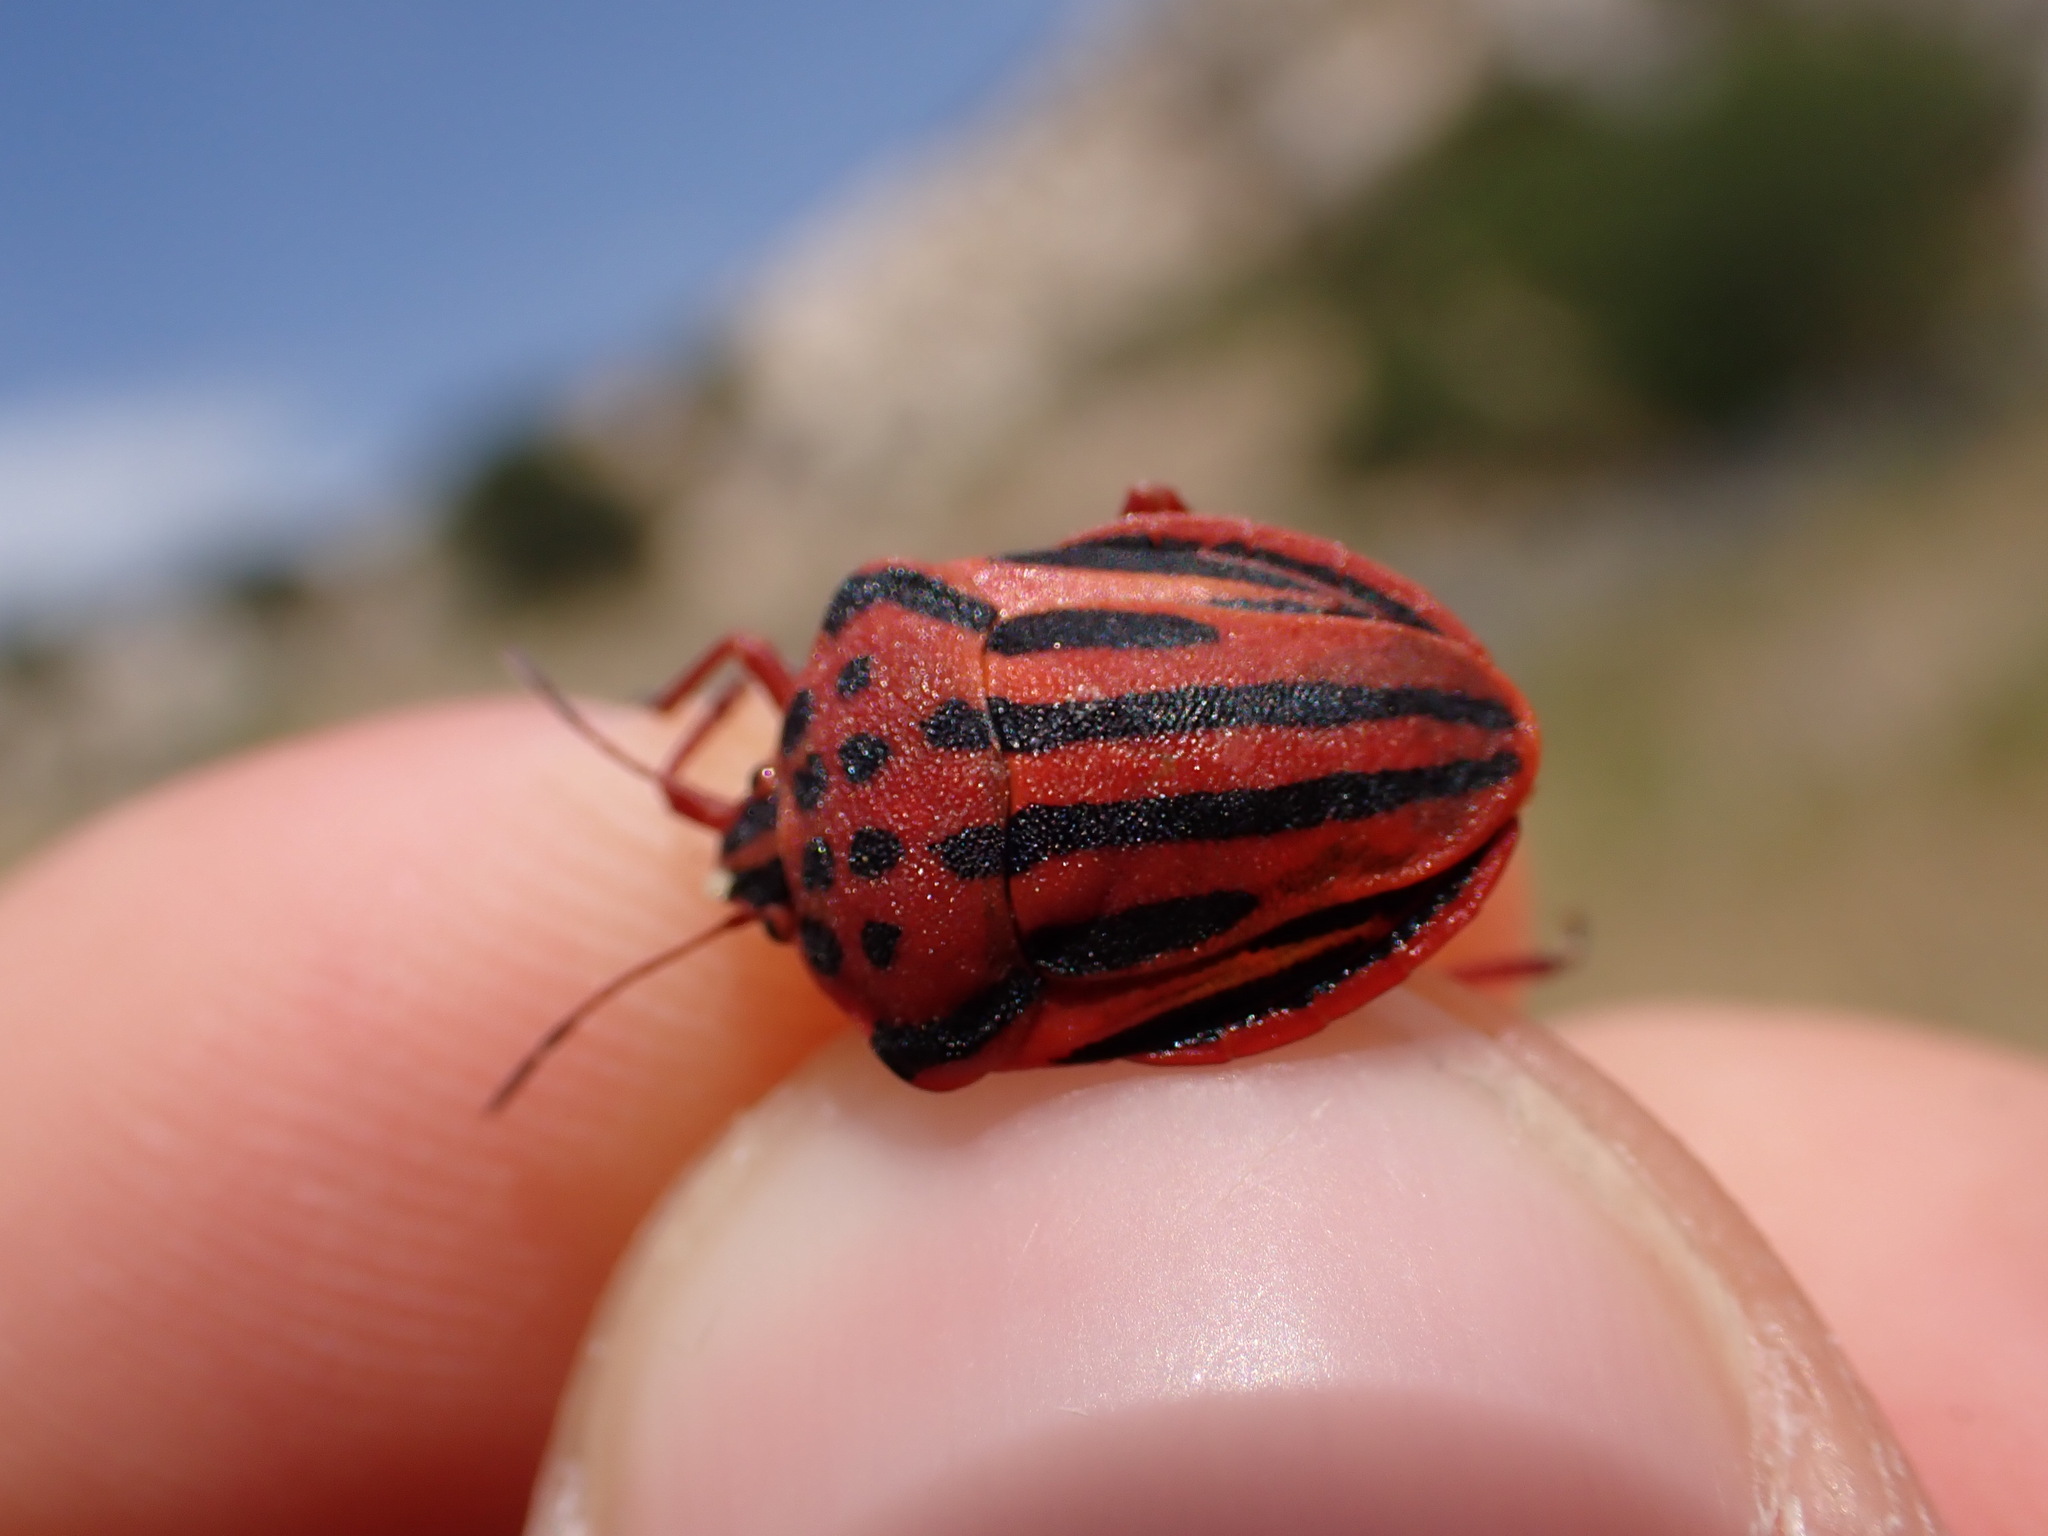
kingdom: Animalia
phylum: Arthropoda
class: Insecta
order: Hemiptera
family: Pentatomidae
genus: Graphosoma
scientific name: Graphosoma semipunctatum
